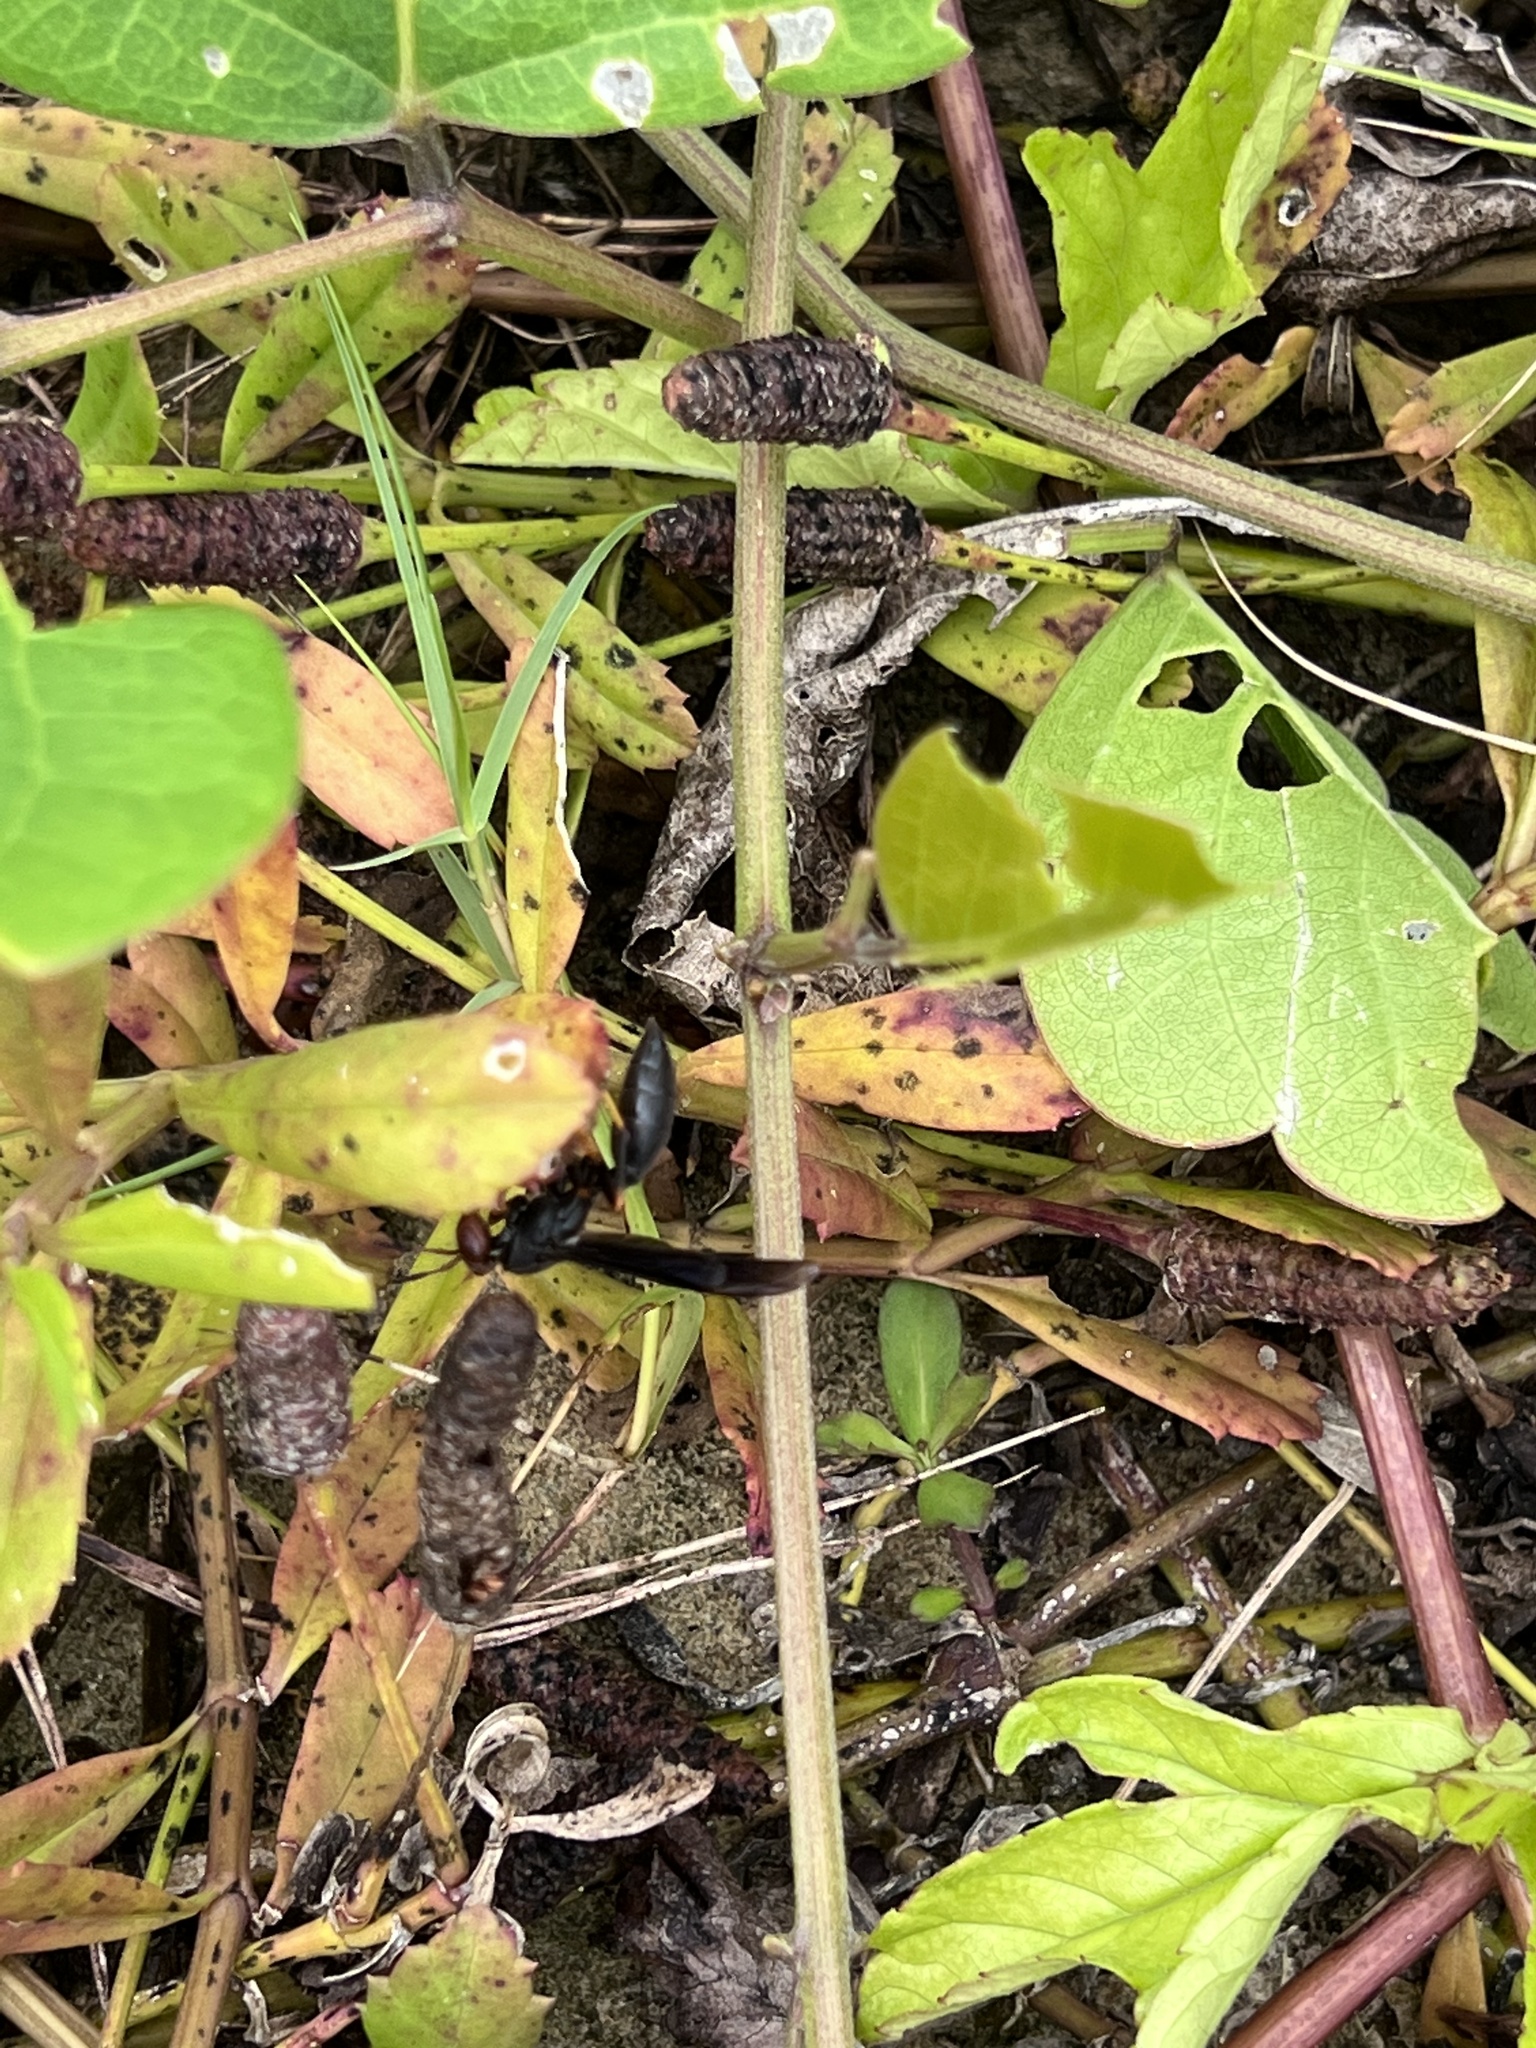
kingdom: Animalia
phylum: Arthropoda
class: Insecta
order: Hymenoptera
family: Eumenidae
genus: Polistes
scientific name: Polistes erythrocephalus
